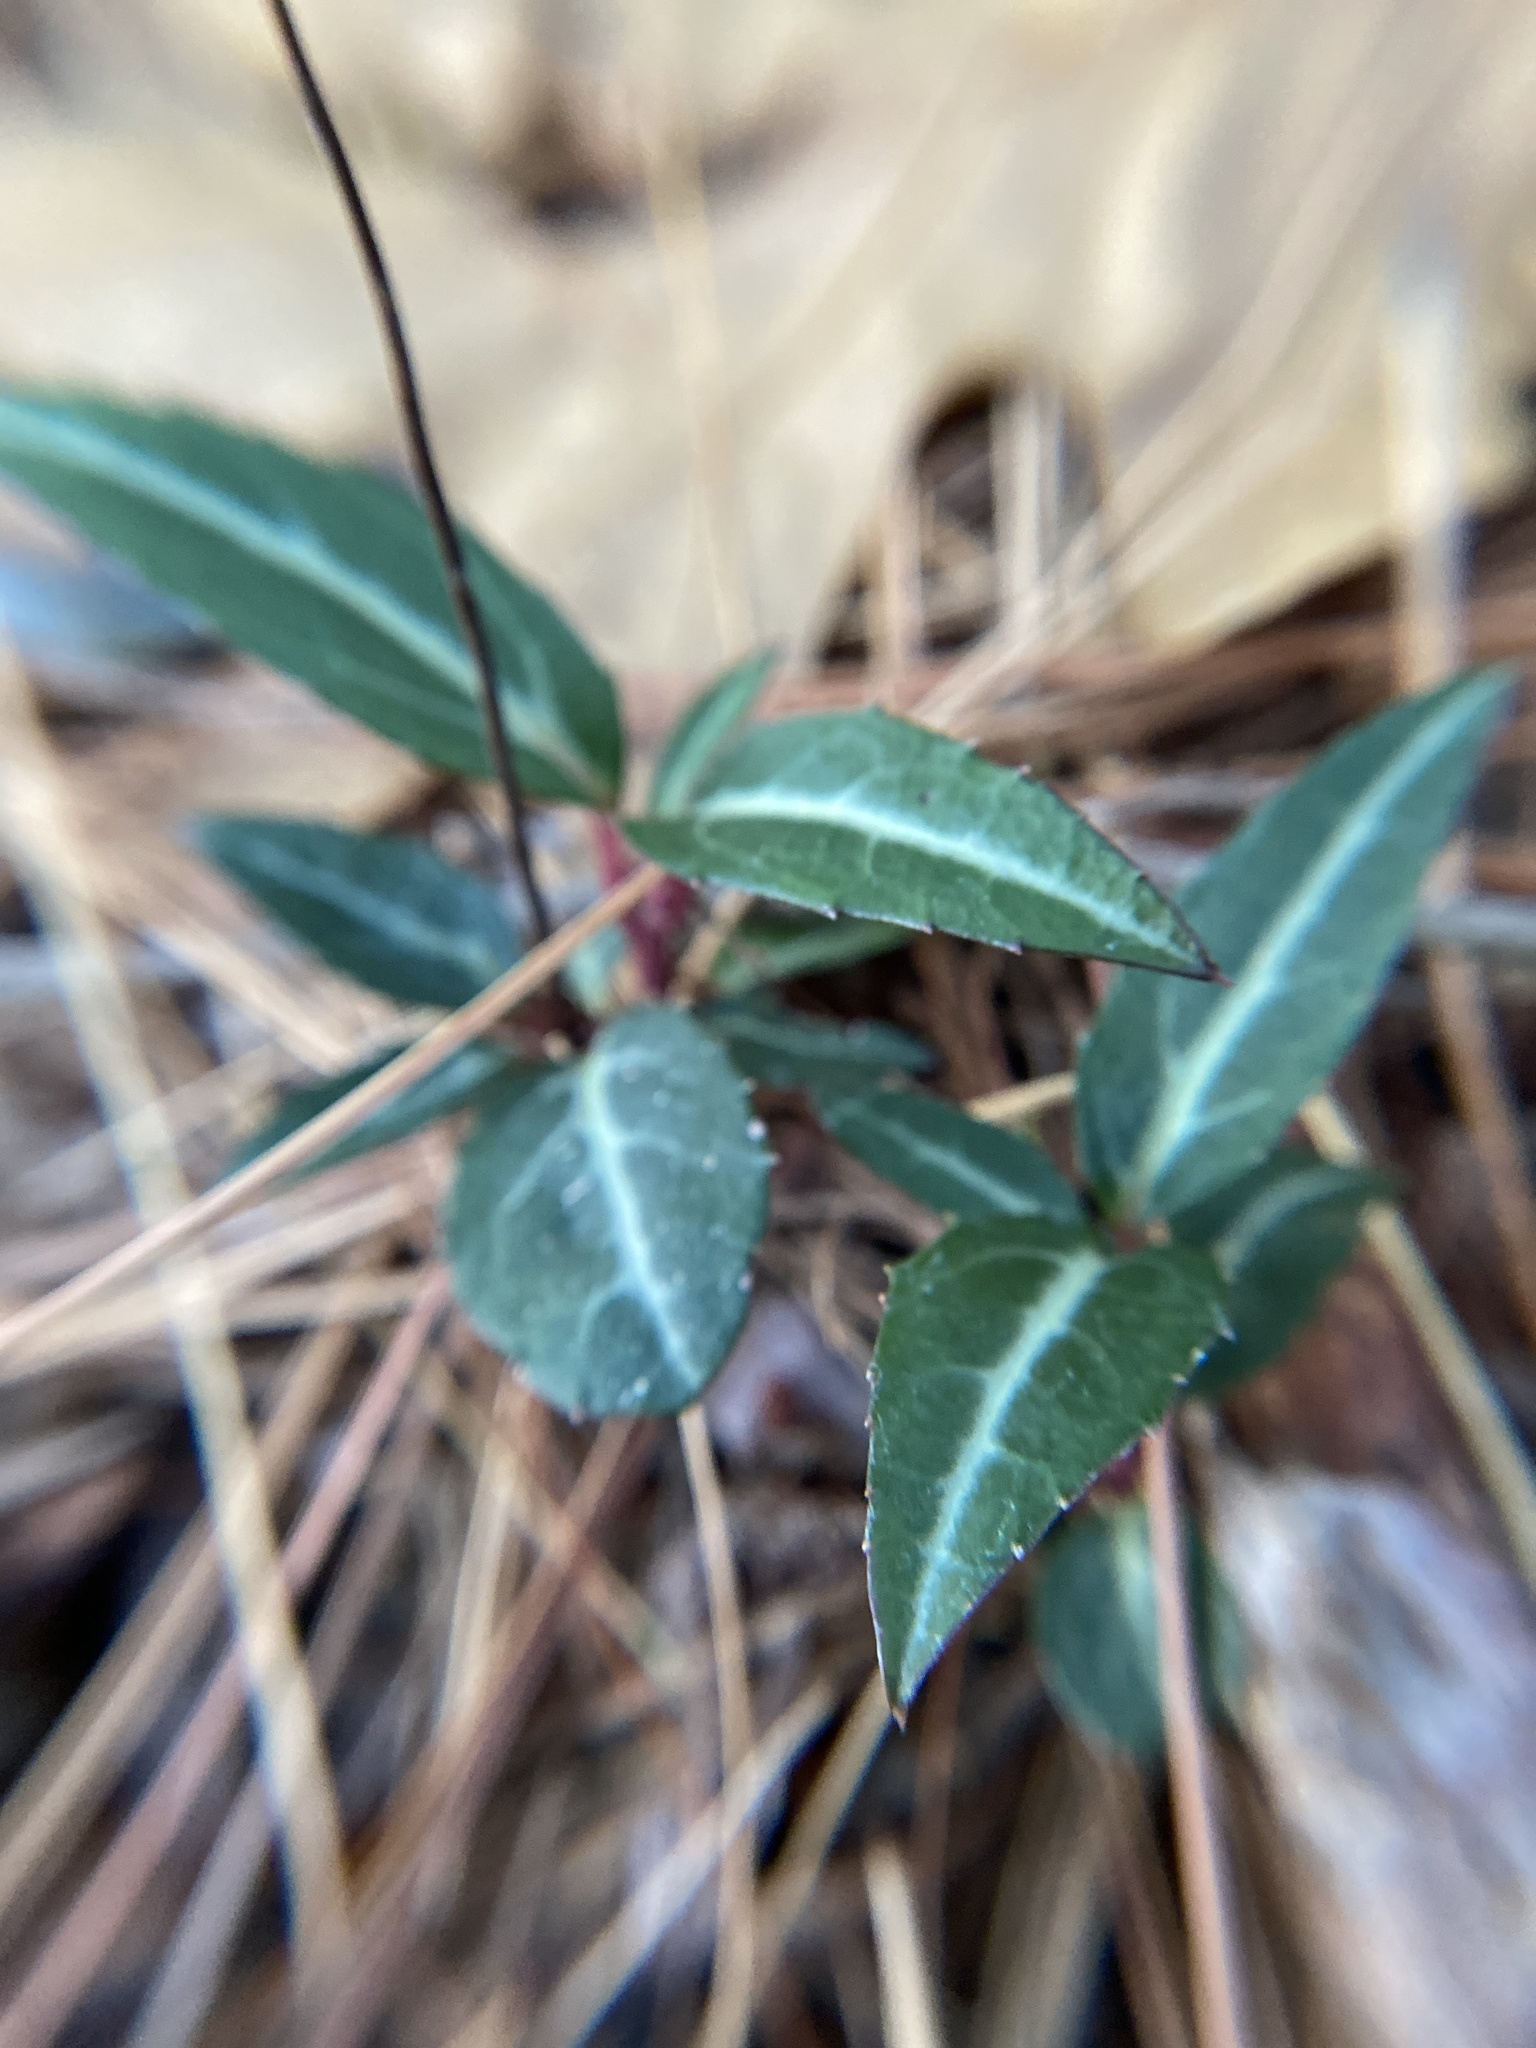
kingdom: Plantae
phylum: Tracheophyta
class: Magnoliopsida
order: Ericales
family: Ericaceae
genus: Chimaphila
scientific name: Chimaphila maculata
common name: Spotted pipsissewa
